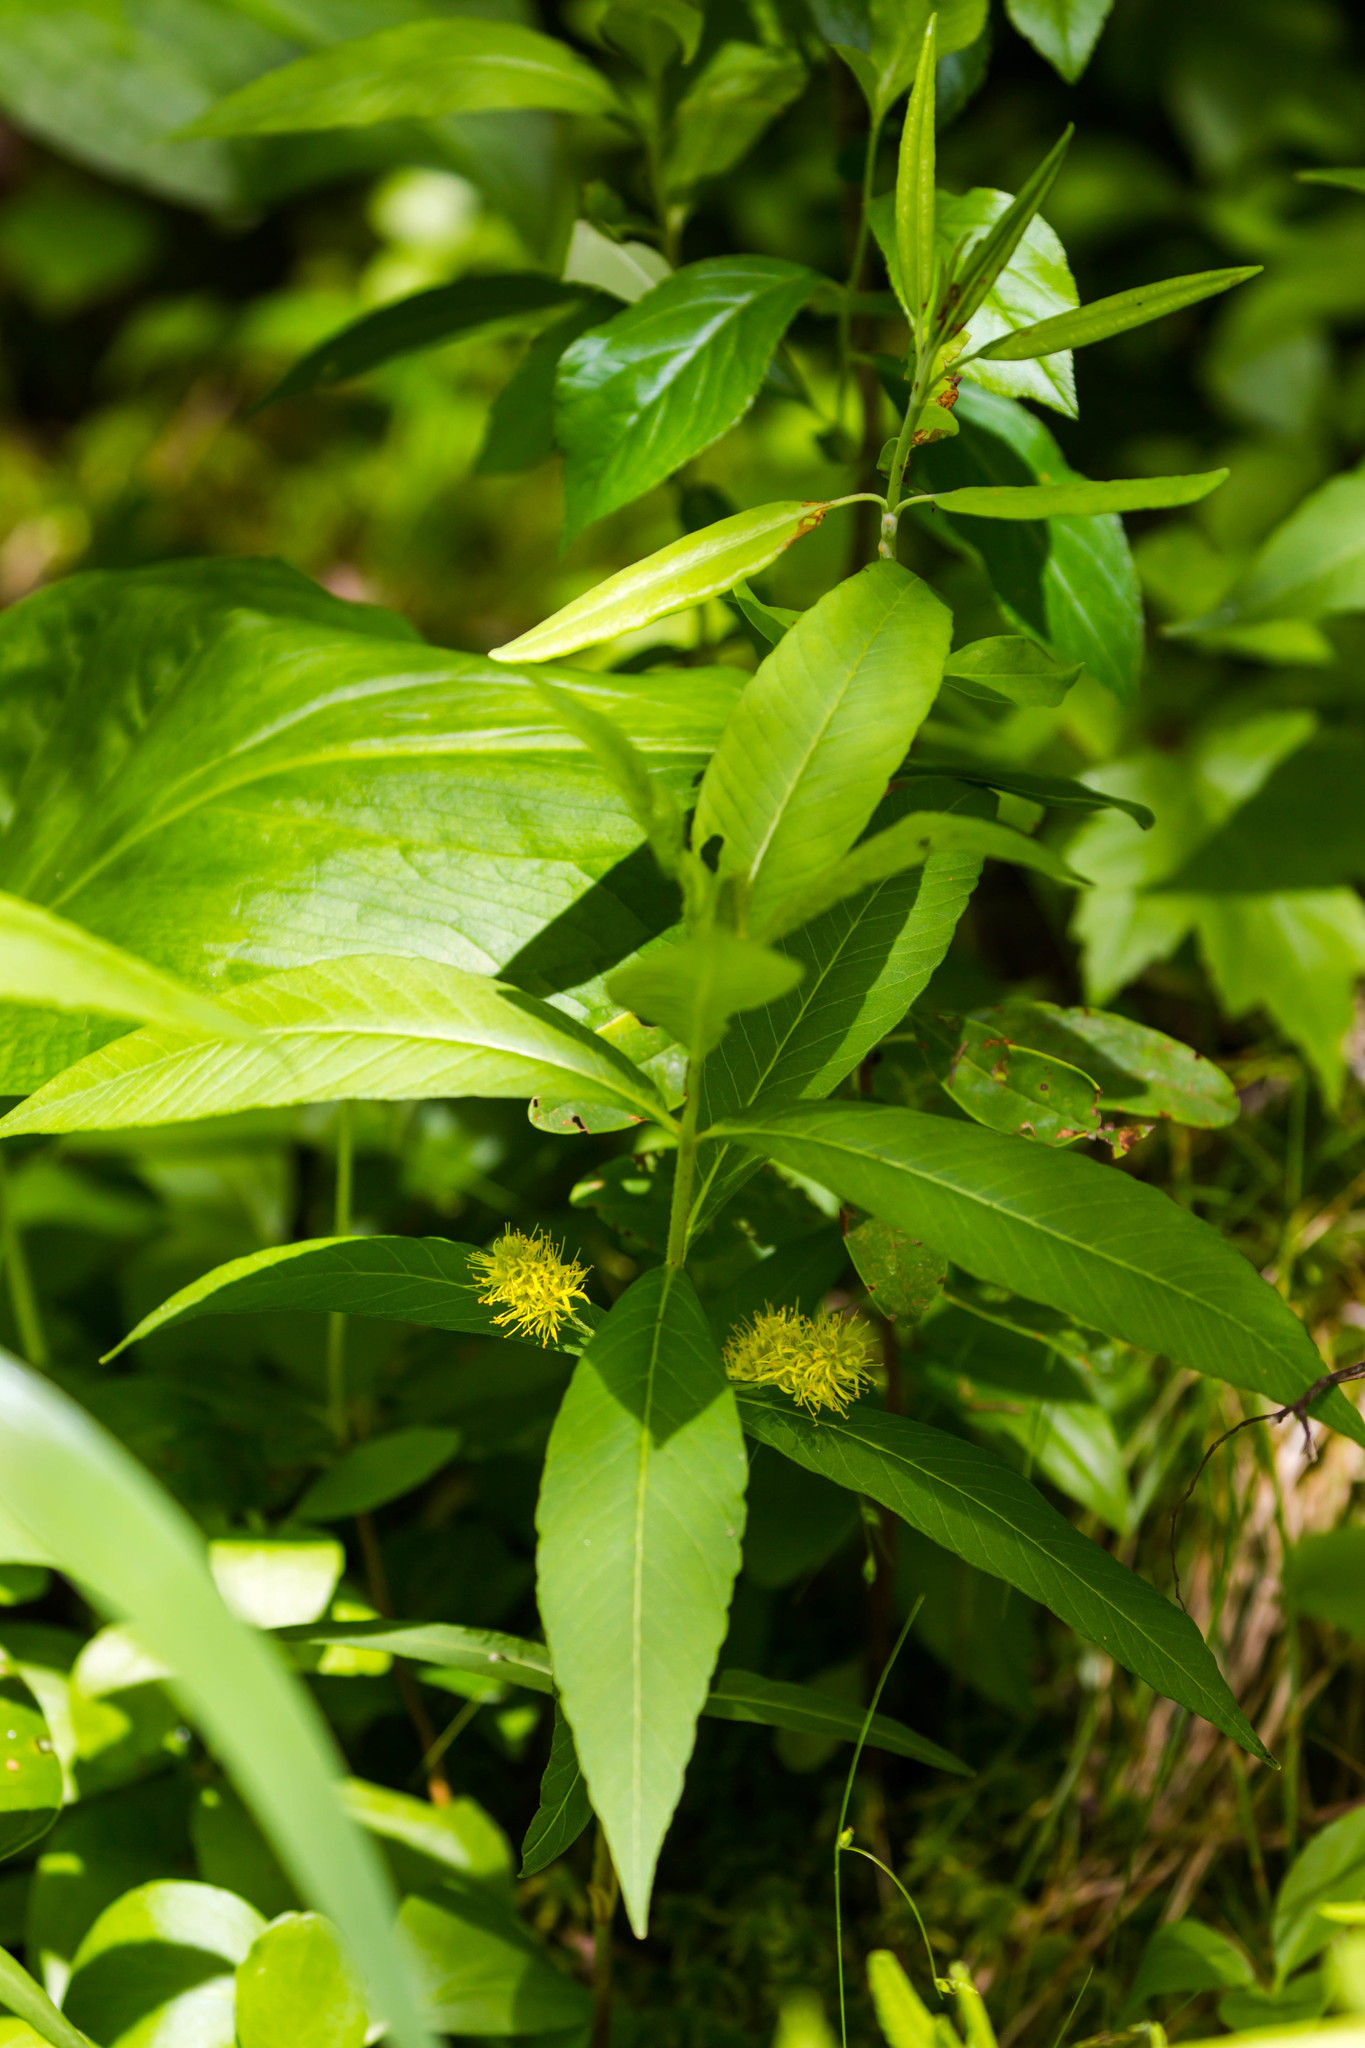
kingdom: Plantae
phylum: Tracheophyta
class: Magnoliopsida
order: Ericales
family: Primulaceae
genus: Lysimachia
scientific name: Lysimachia thyrsiflora
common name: Tufted loosestrife
